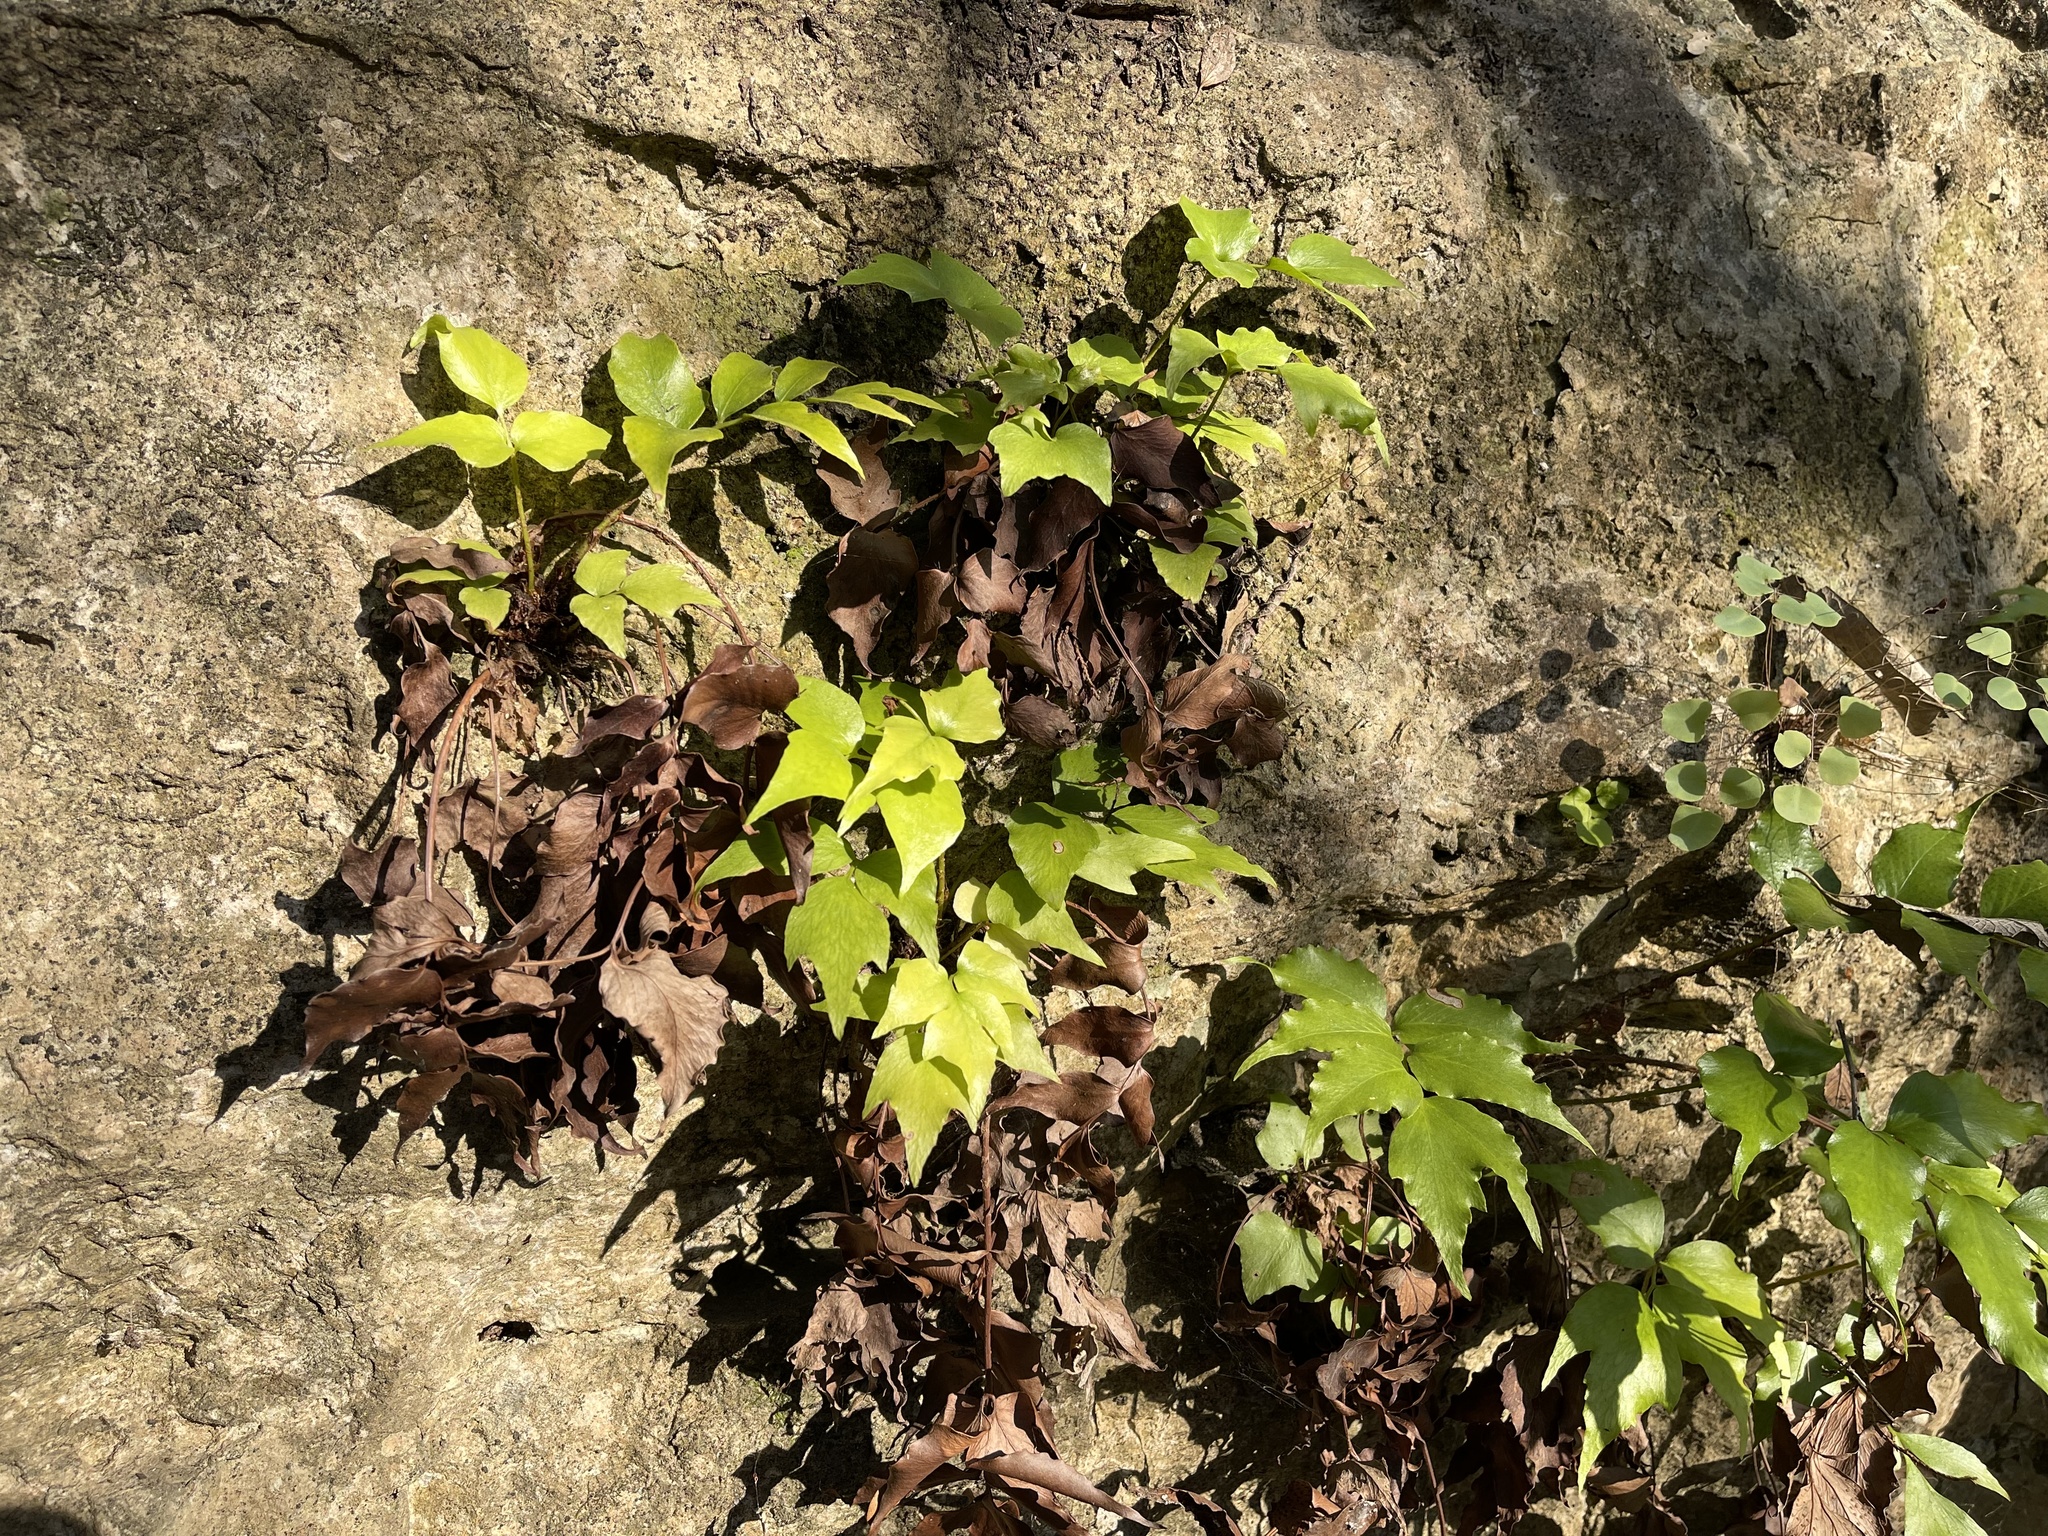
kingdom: Plantae
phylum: Tracheophyta
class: Polypodiopsida
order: Polypodiales
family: Dryopteridaceae
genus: Cyrtomium
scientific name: Cyrtomium falcatum
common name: House holly-fern
